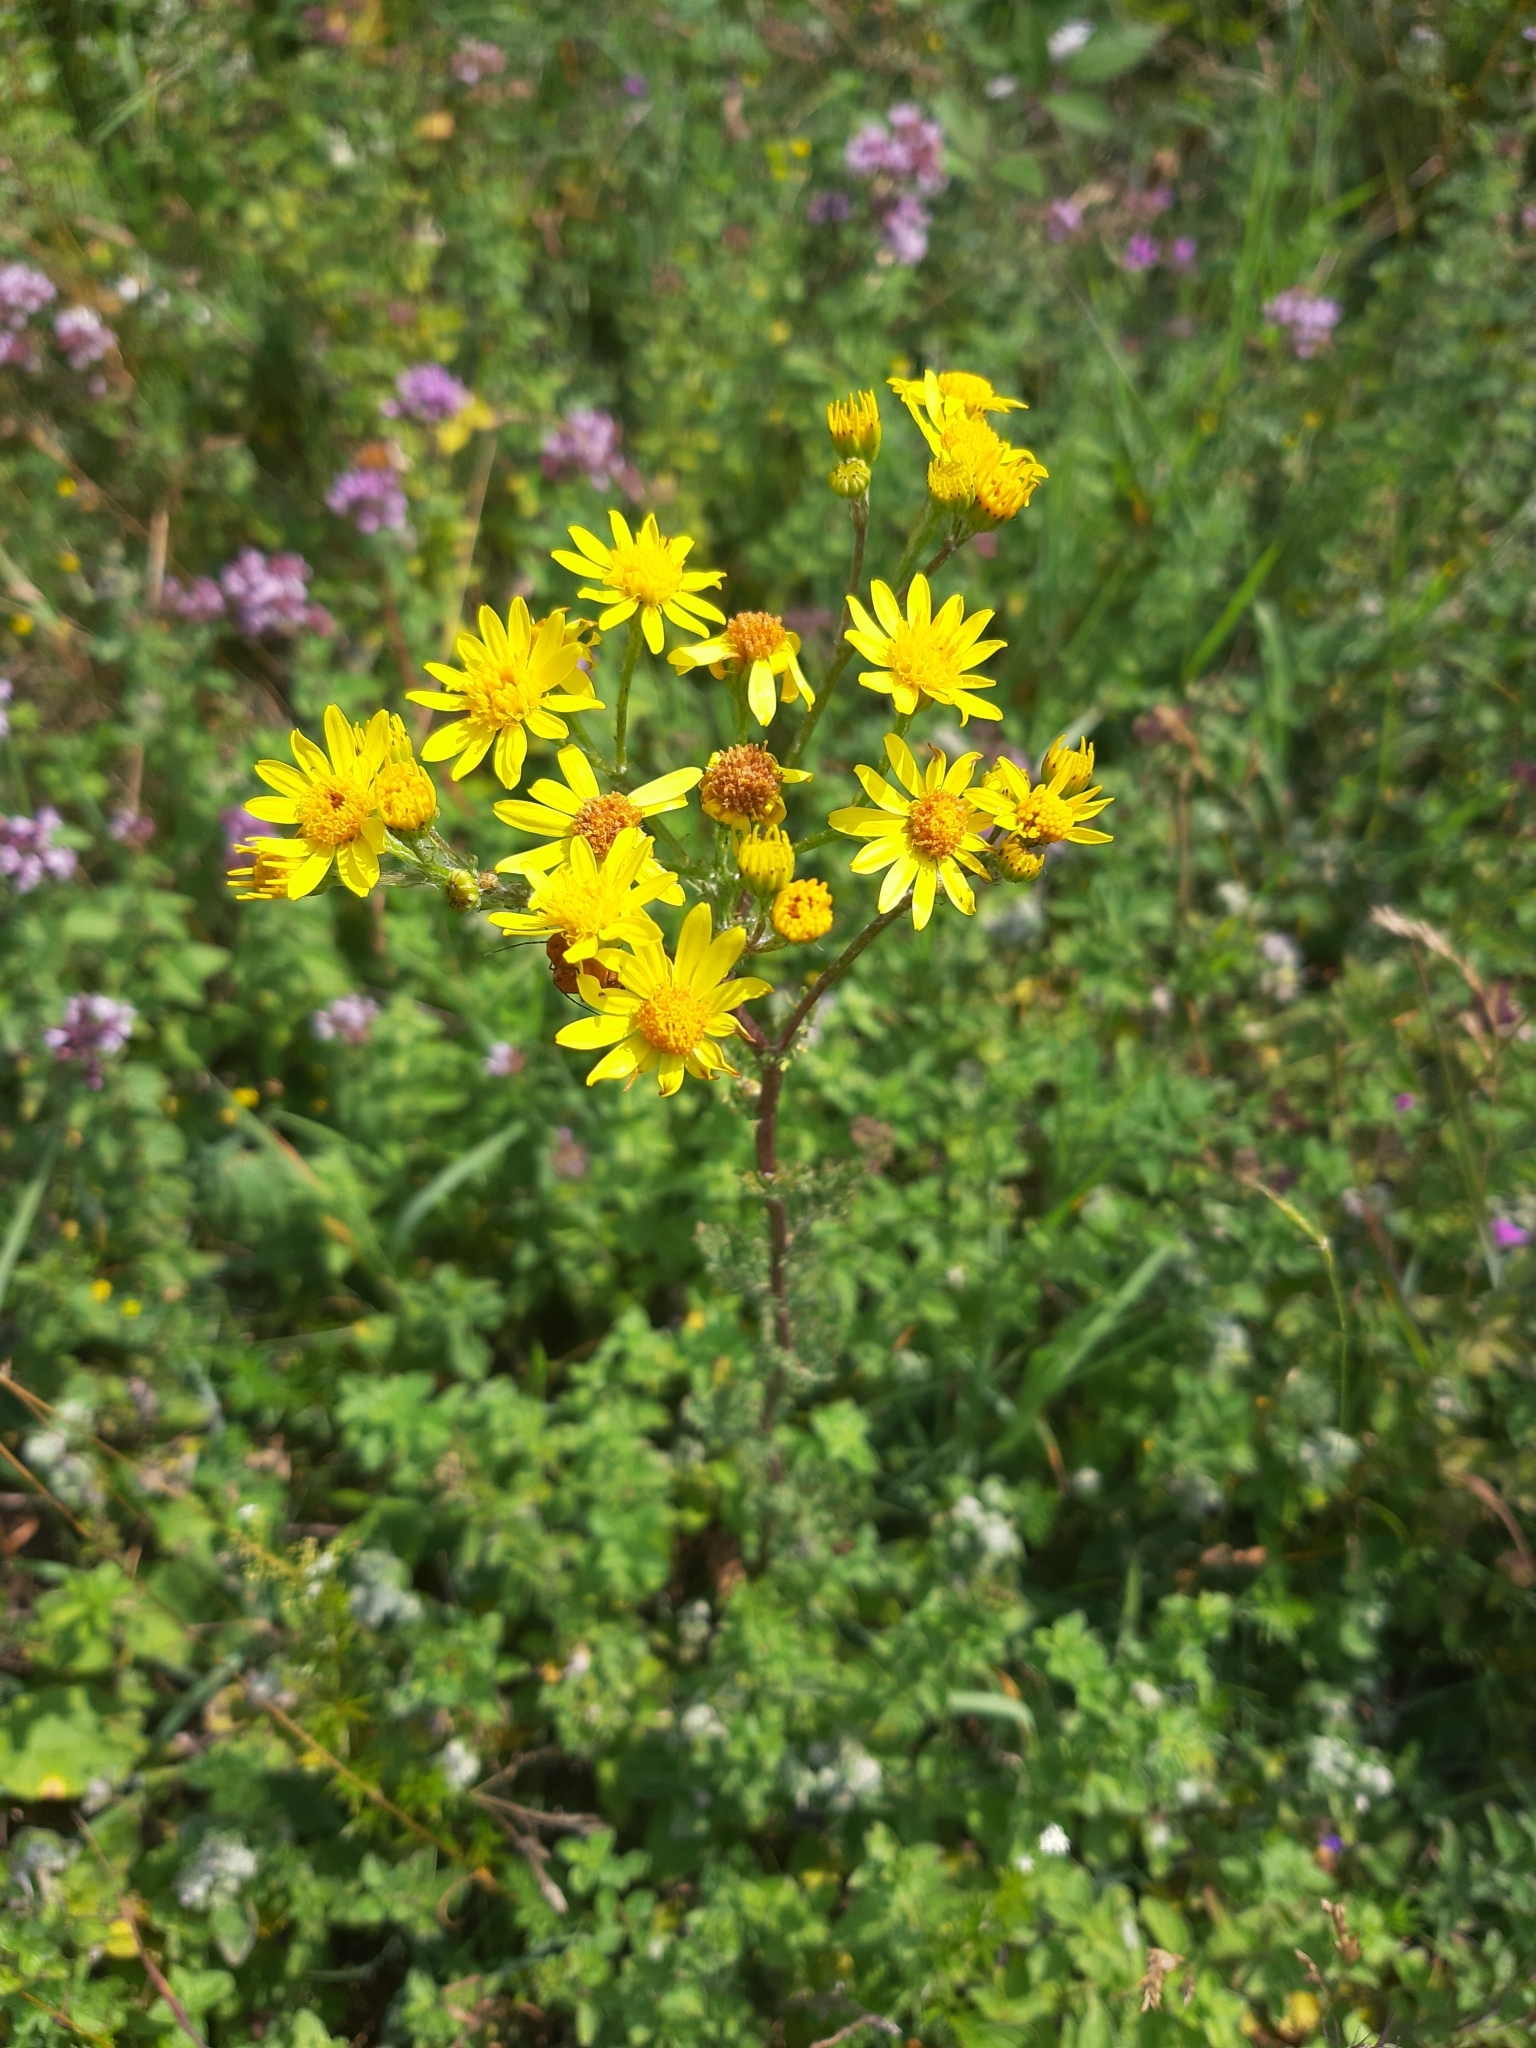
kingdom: Plantae
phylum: Tracheophyta
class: Magnoliopsida
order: Asterales
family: Asteraceae
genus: Jacobaea
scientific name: Jacobaea vulgaris
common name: Stinking willie
